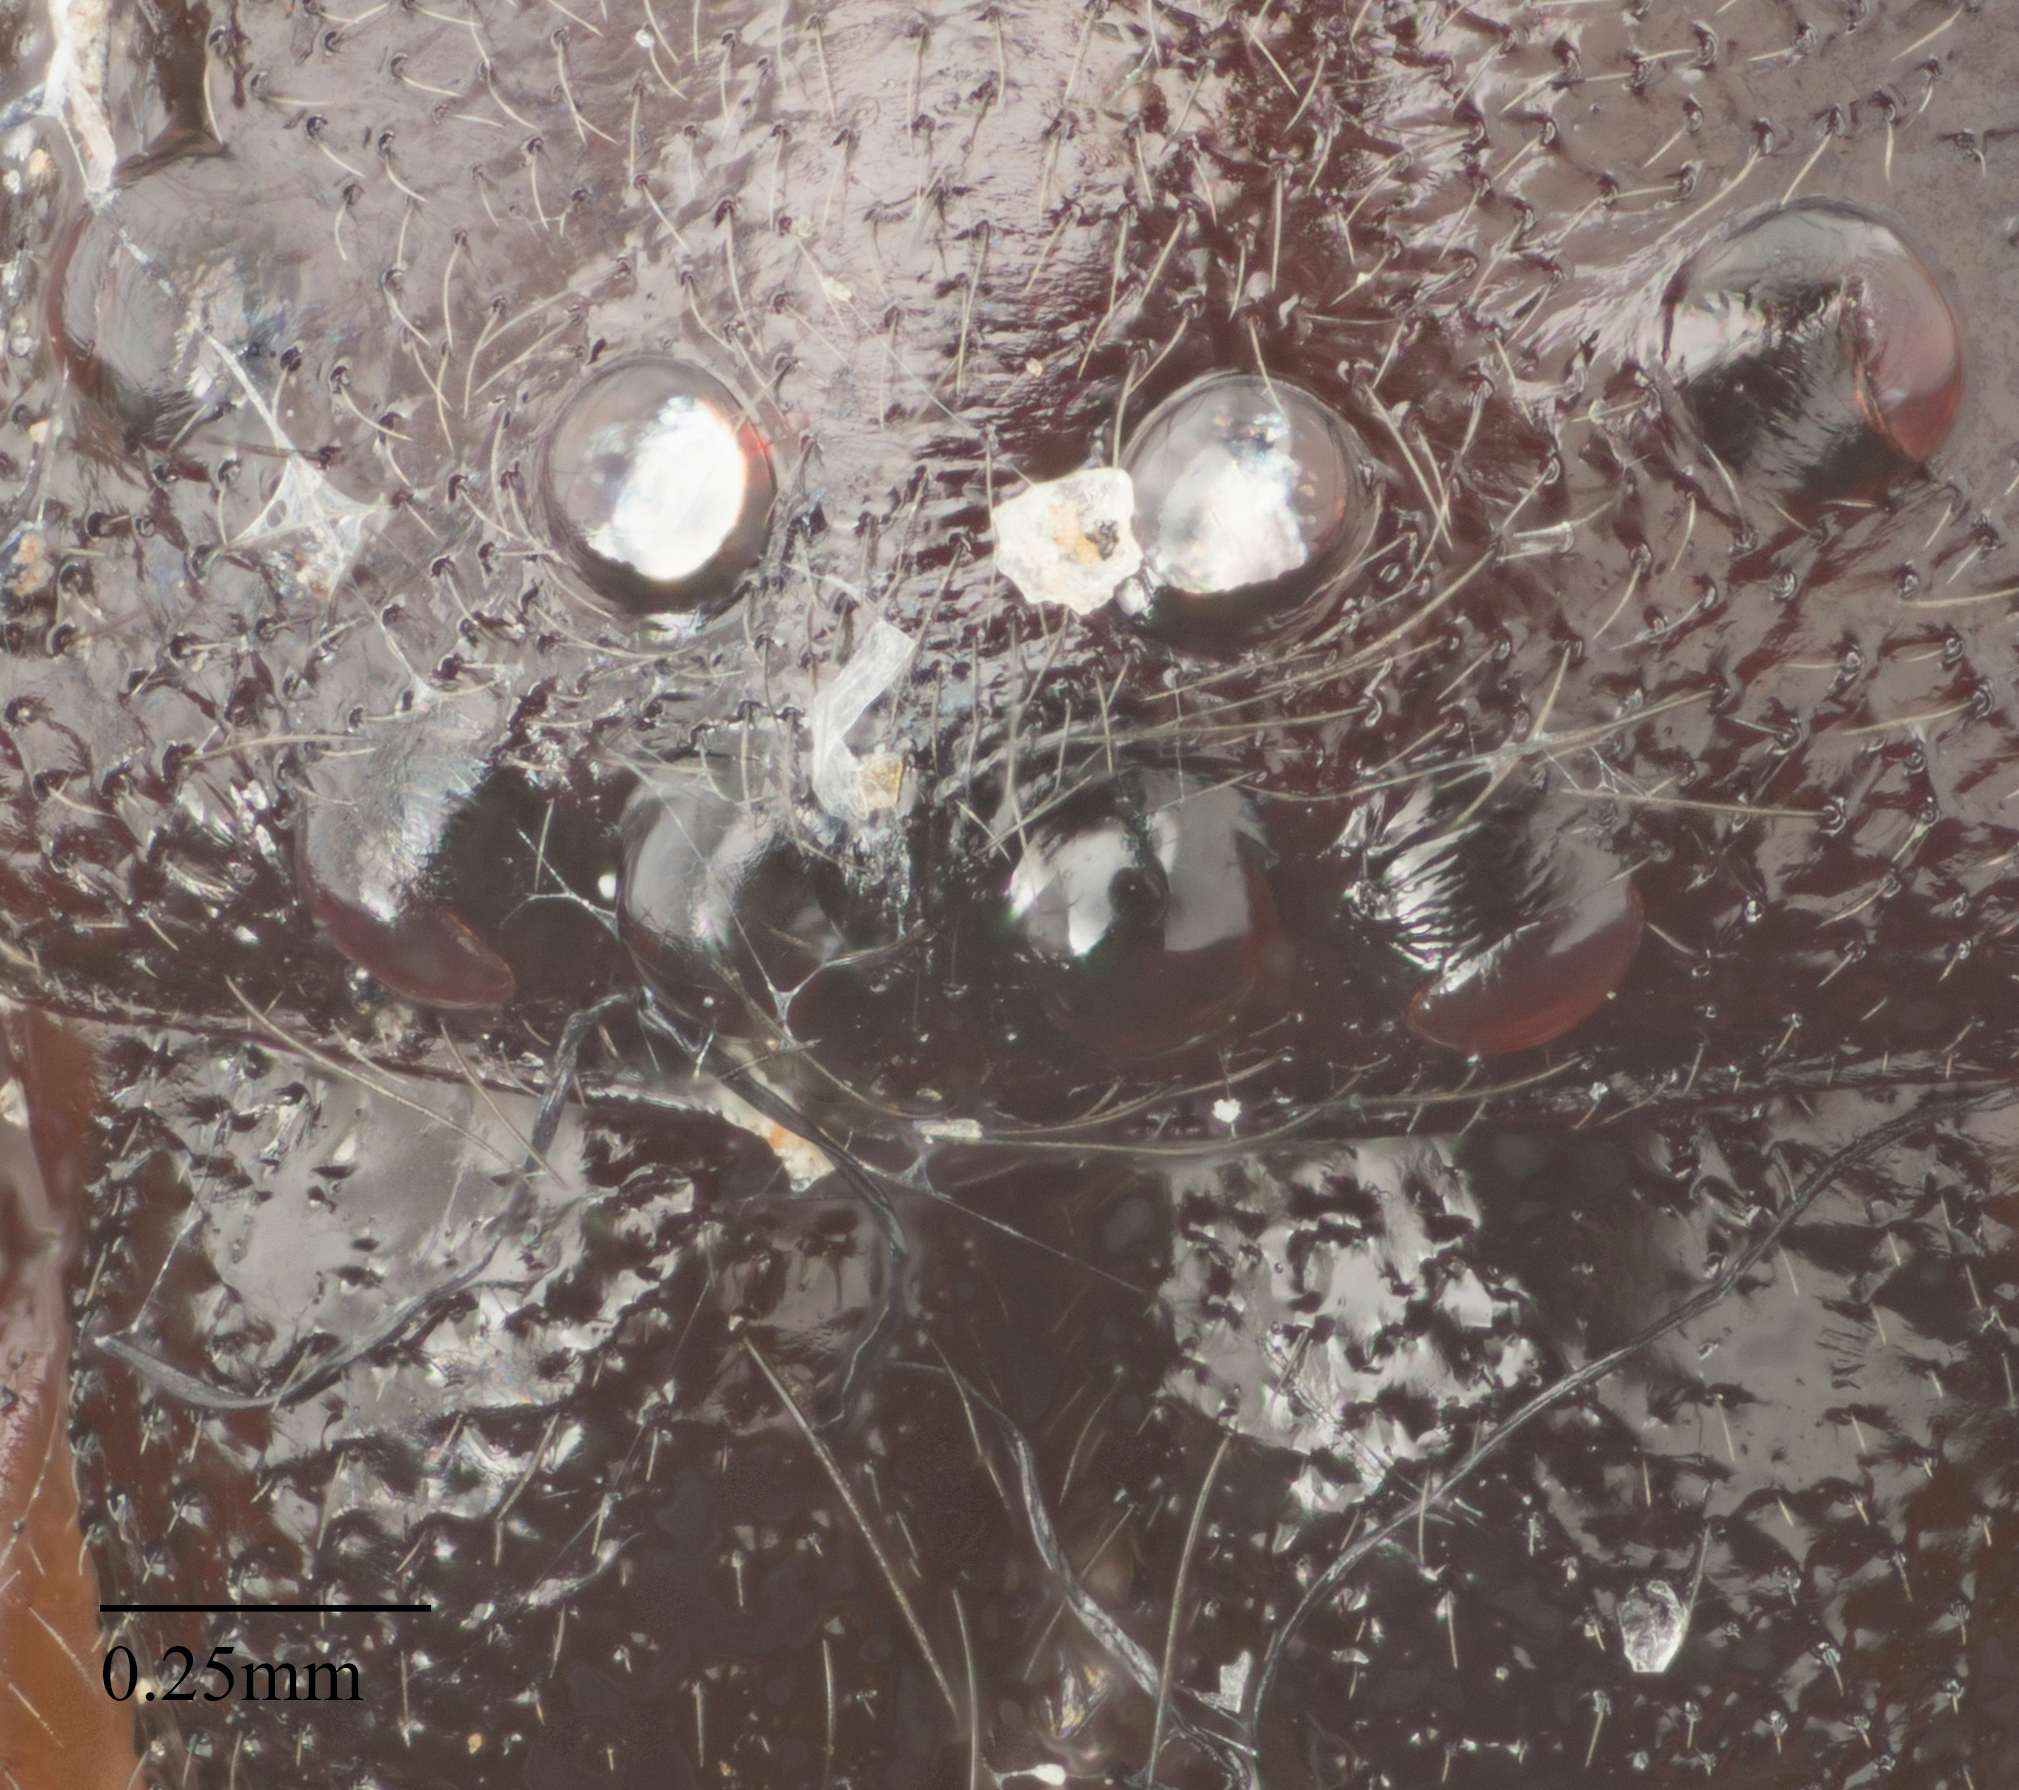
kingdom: Animalia
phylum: Arthropoda
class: Arachnida
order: Araneae
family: Trachelidae
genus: Trachelas
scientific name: Trachelas pacificus
